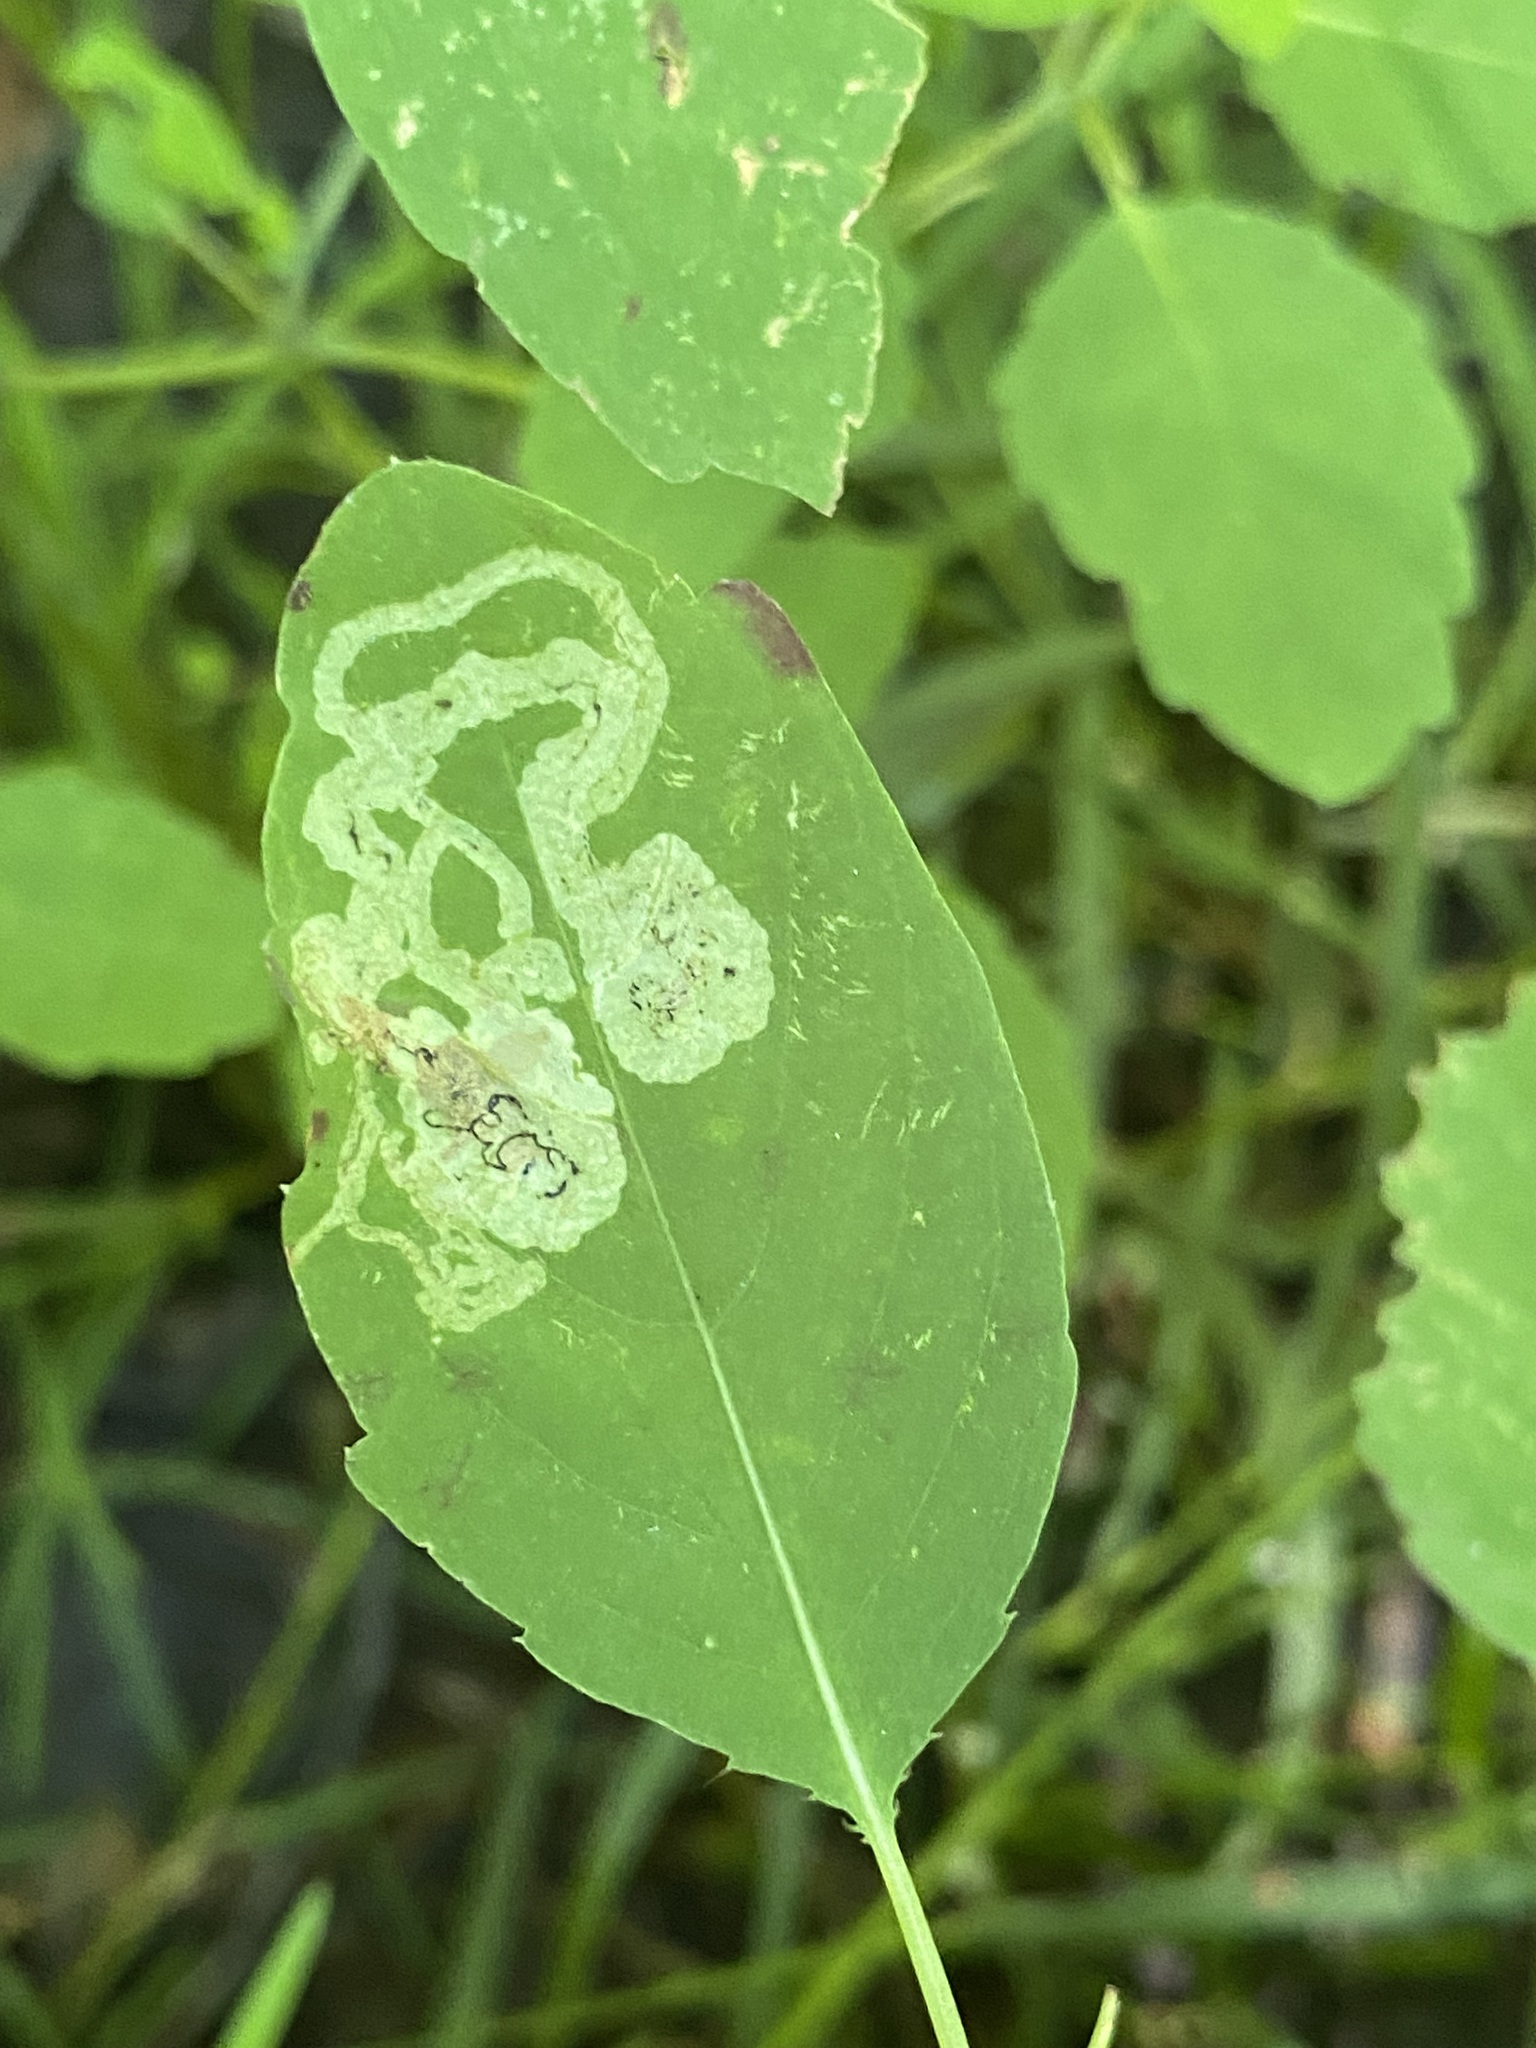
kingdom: Animalia
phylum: Arthropoda
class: Insecta
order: Diptera
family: Agromyzidae
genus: Phytoliriomyza
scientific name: Phytoliriomyza melampyga
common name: Jewelweed leaf-miner fly
